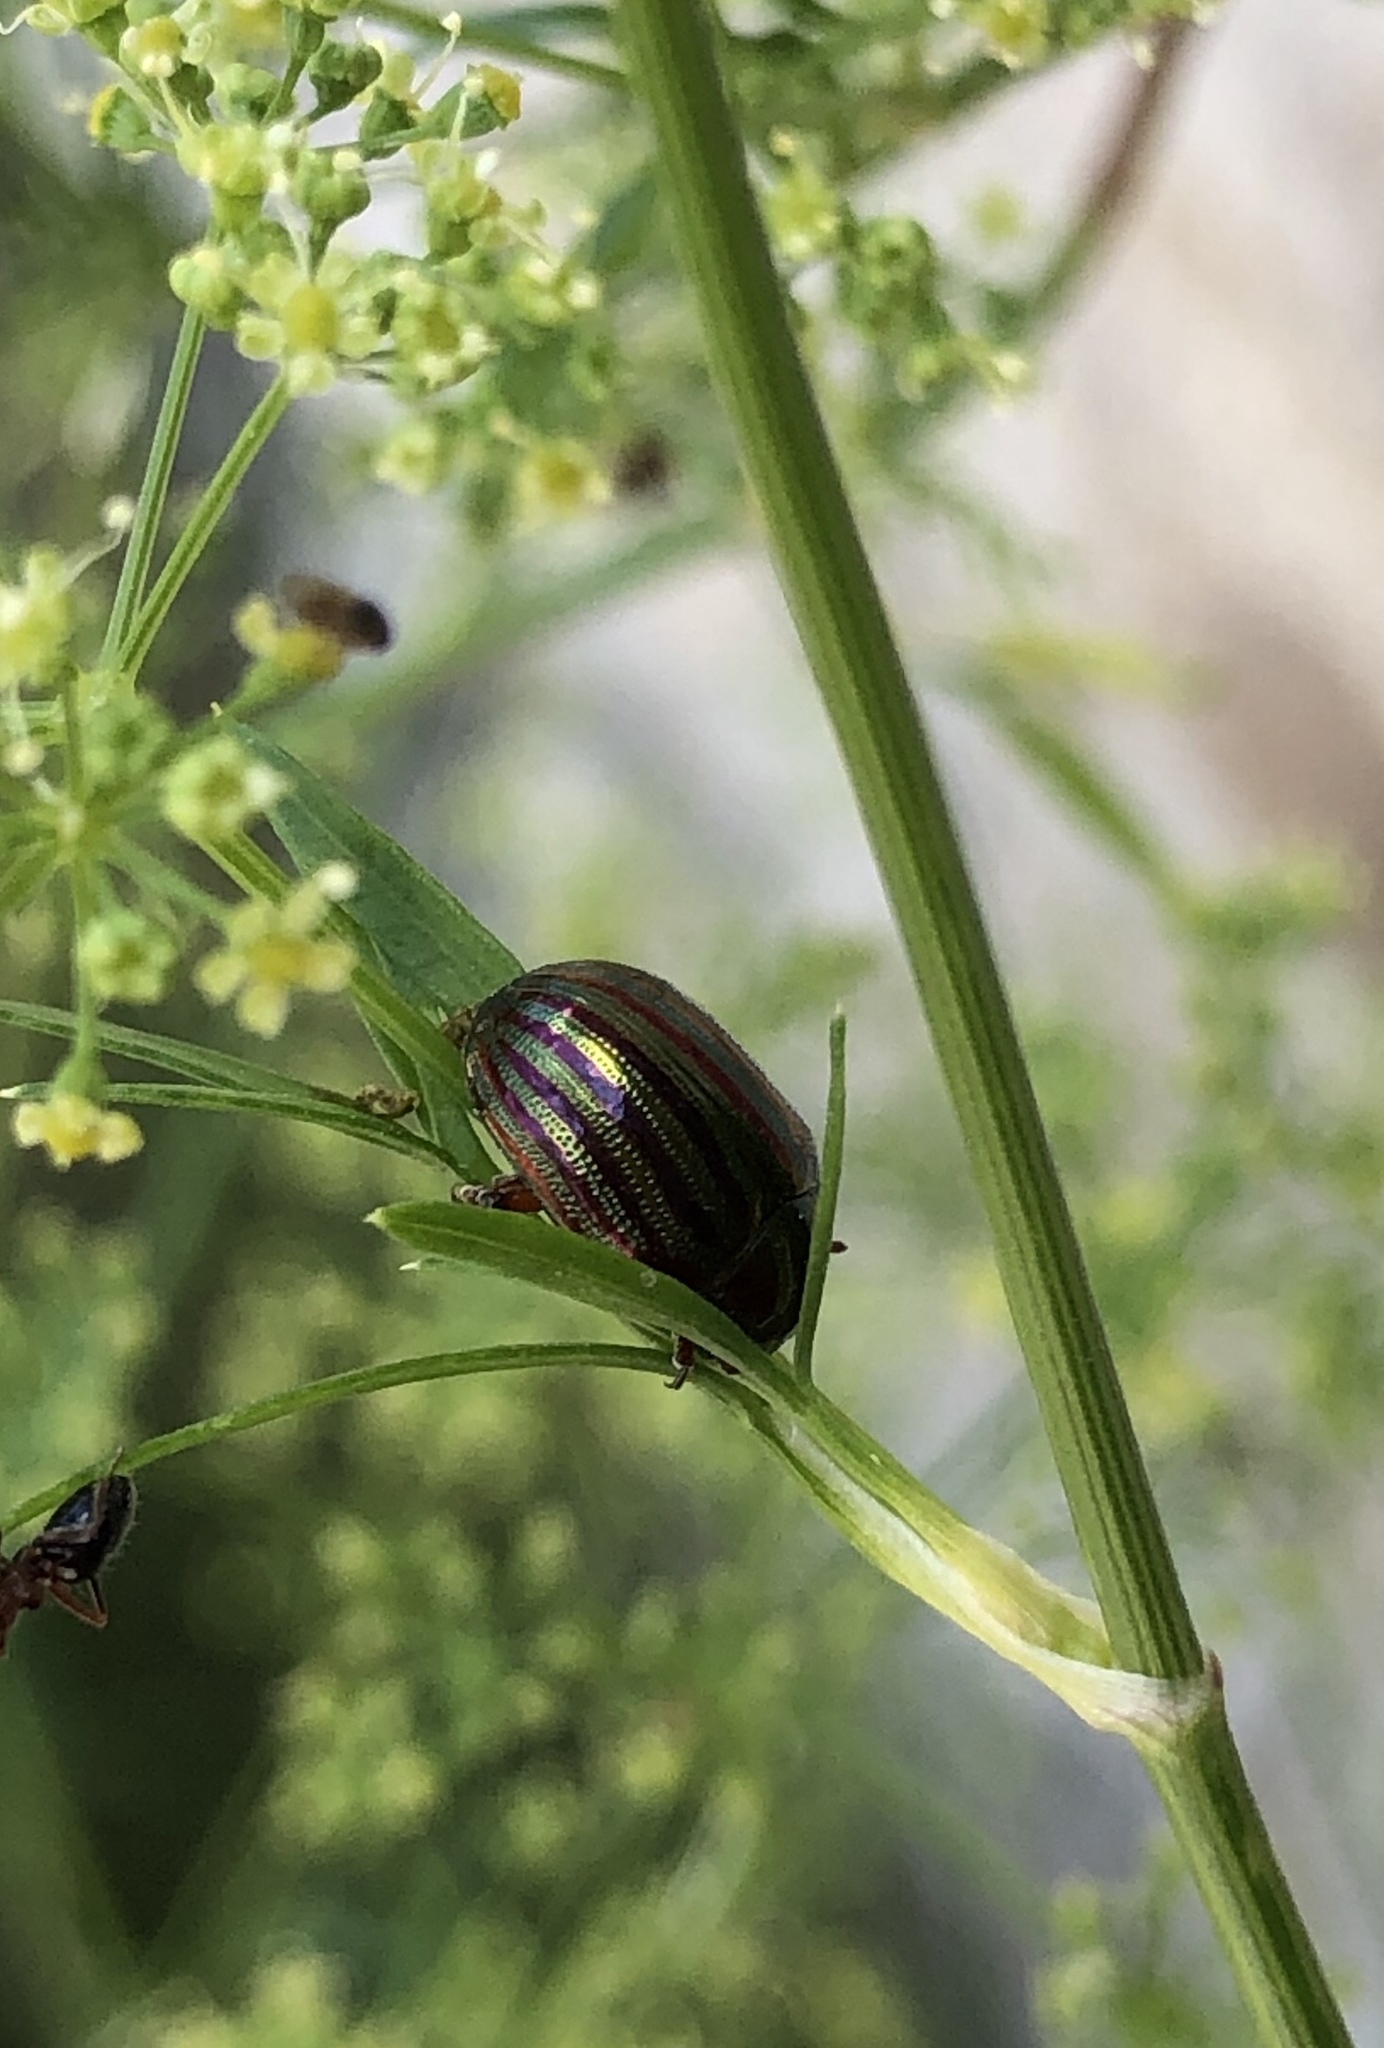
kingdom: Animalia
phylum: Arthropoda
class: Insecta
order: Coleoptera
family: Chrysomelidae
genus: Chrysolina
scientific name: Chrysolina americana
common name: Rosemary beetle
